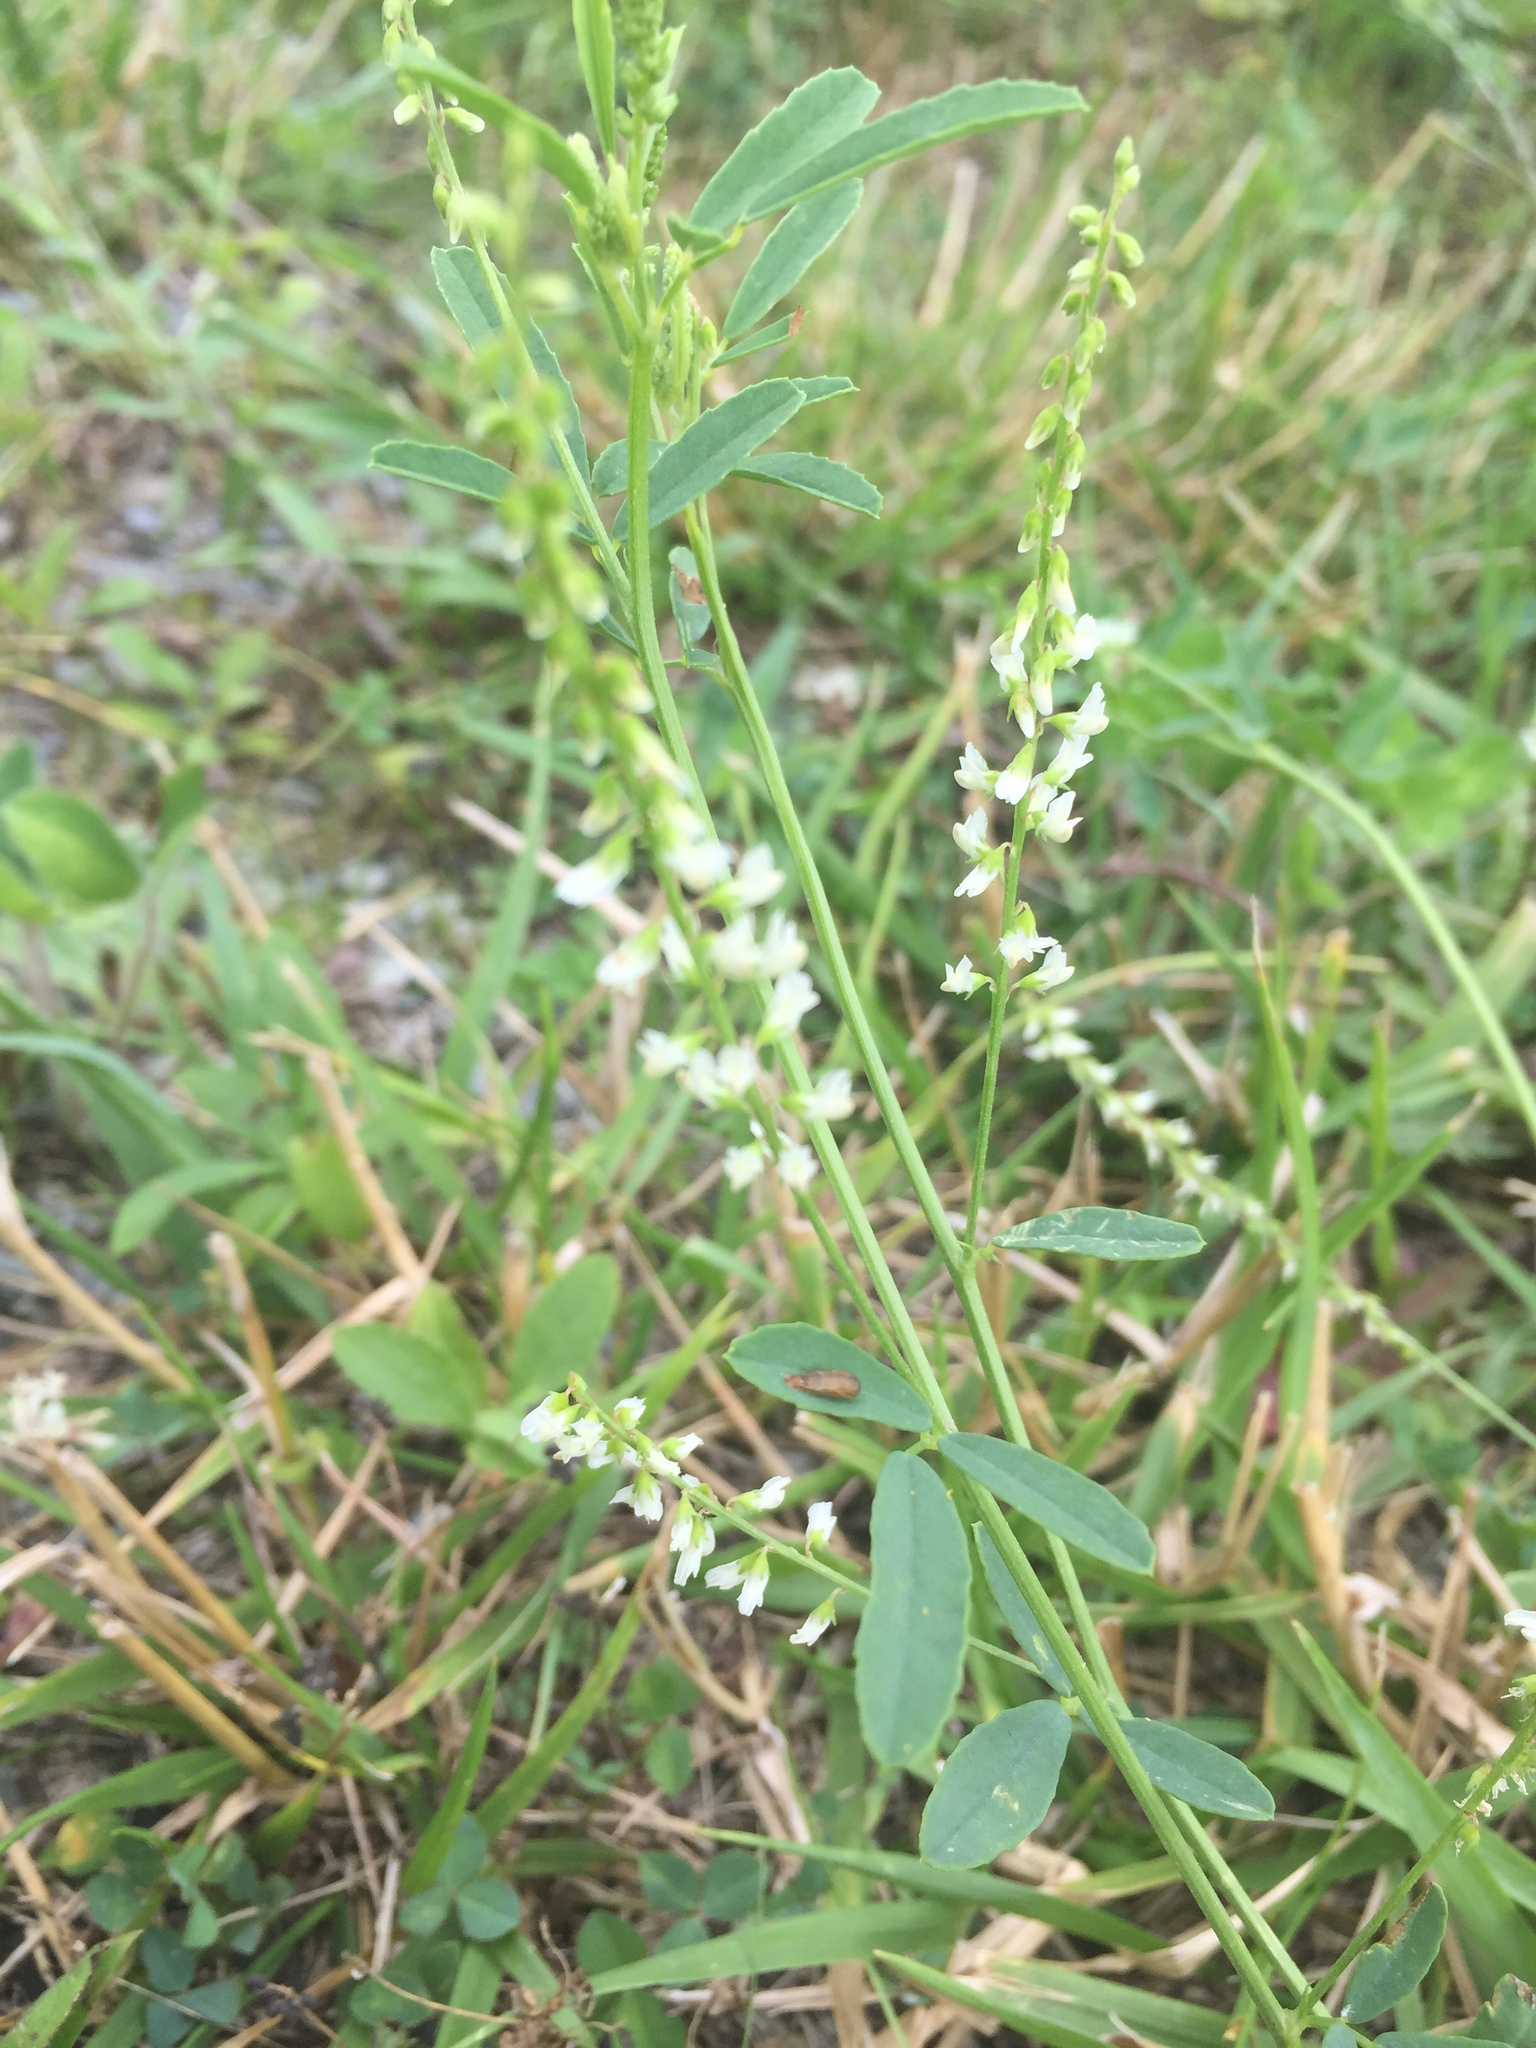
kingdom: Plantae
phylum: Tracheophyta
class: Magnoliopsida
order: Fabales
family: Fabaceae
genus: Melilotus
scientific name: Melilotus albus
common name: White melilot
